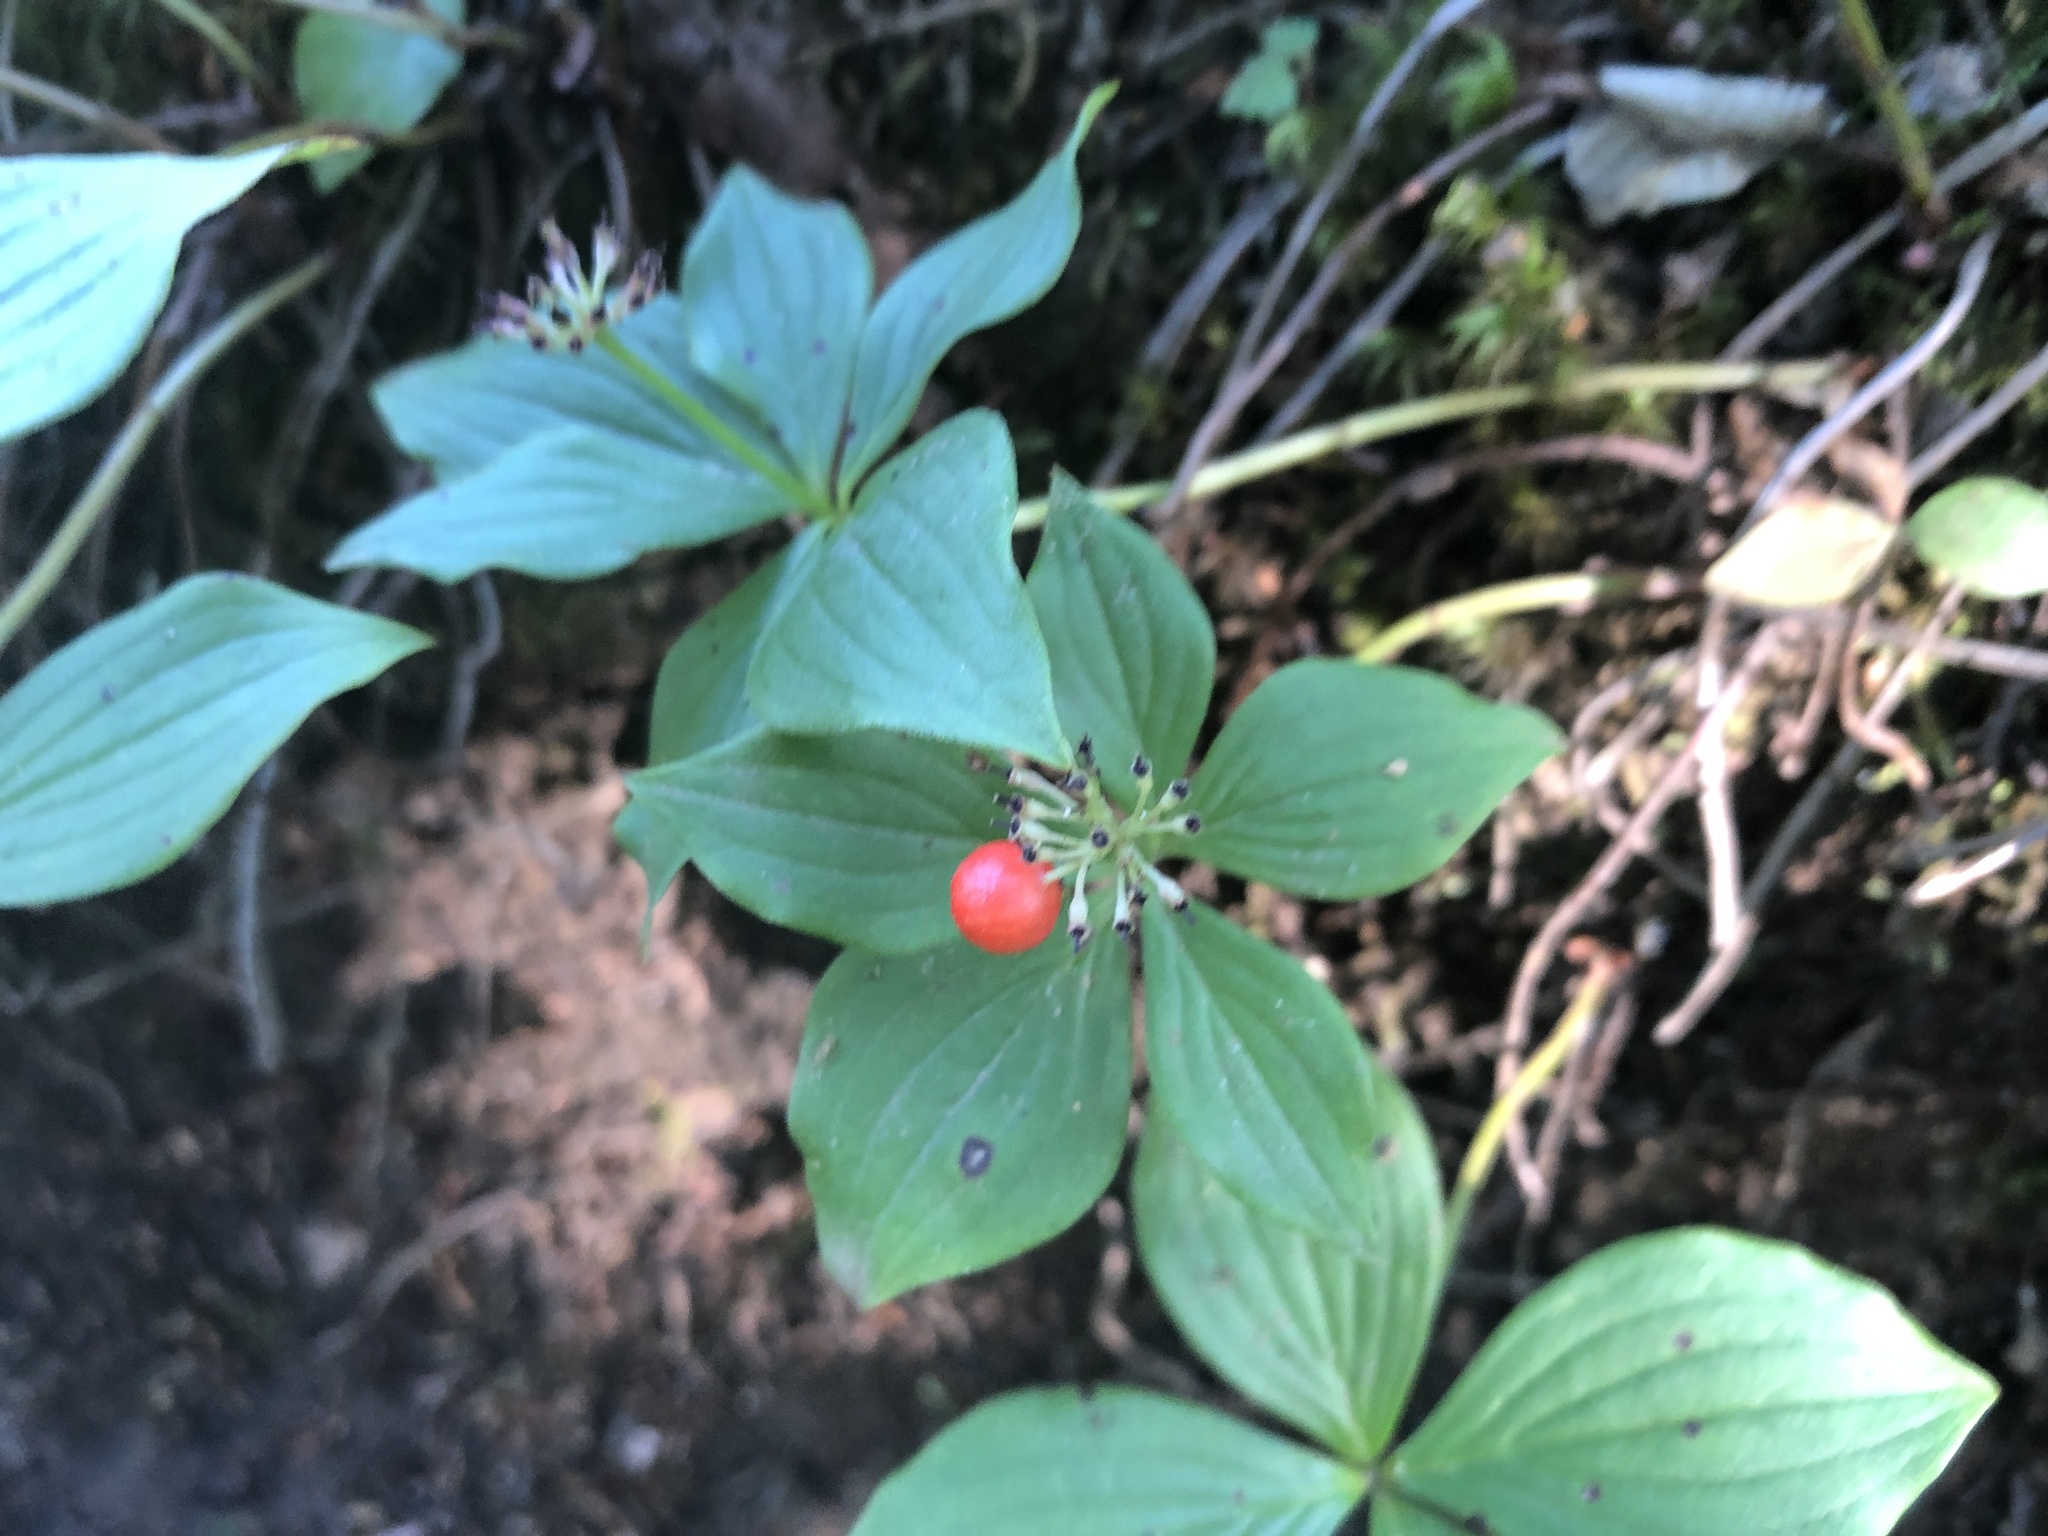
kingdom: Plantae
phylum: Tracheophyta
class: Magnoliopsida
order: Cornales
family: Cornaceae
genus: Cornus
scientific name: Cornus canadensis
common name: Creeping dogwood
